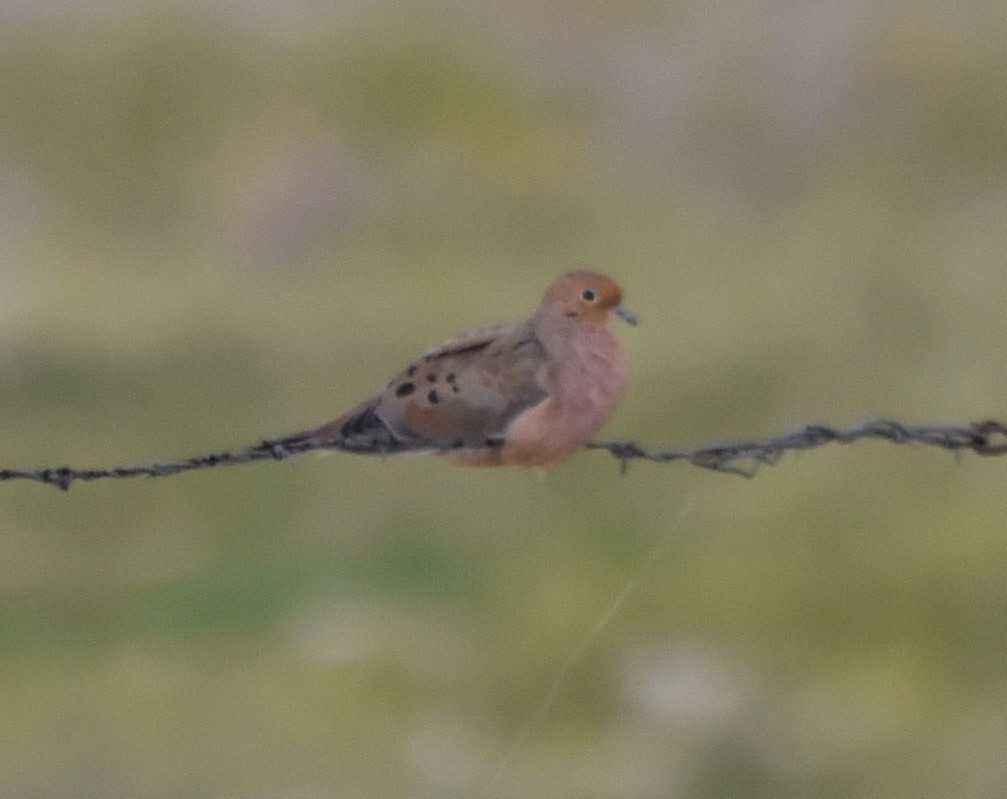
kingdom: Animalia
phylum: Chordata
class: Aves
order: Columbiformes
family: Columbidae
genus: Zenaida
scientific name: Zenaida macroura
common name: Mourning dove
